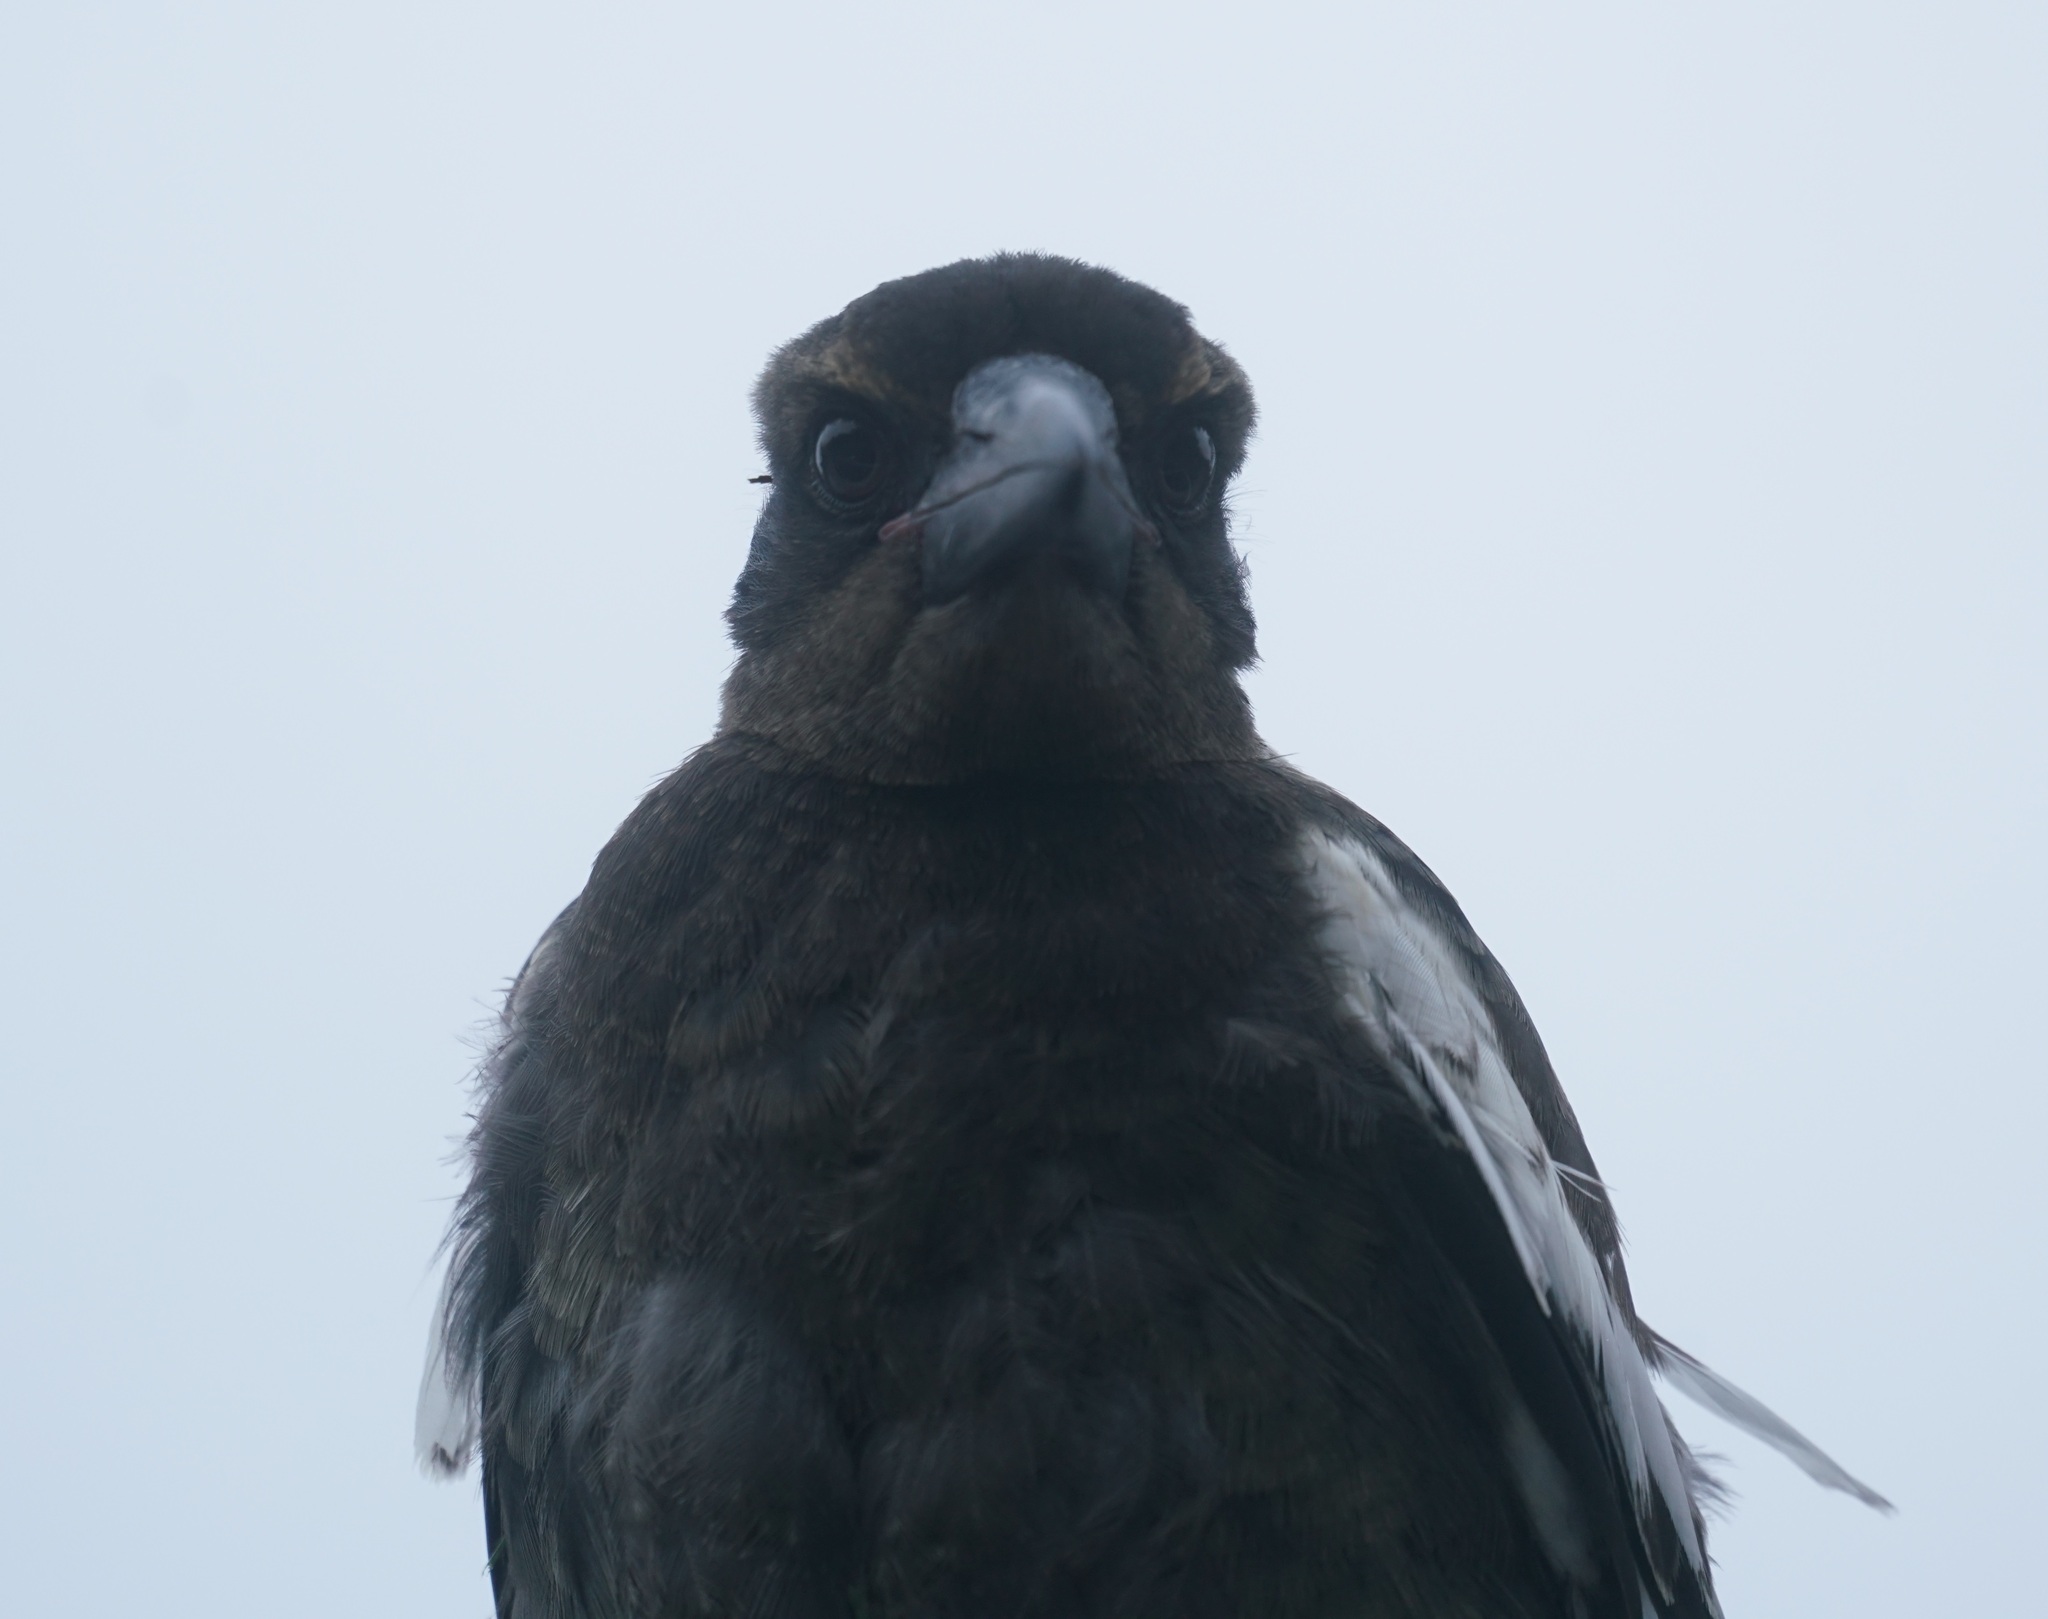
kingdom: Animalia
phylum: Chordata
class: Aves
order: Passeriformes
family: Cracticidae
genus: Gymnorhina
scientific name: Gymnorhina tibicen
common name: Australian magpie
